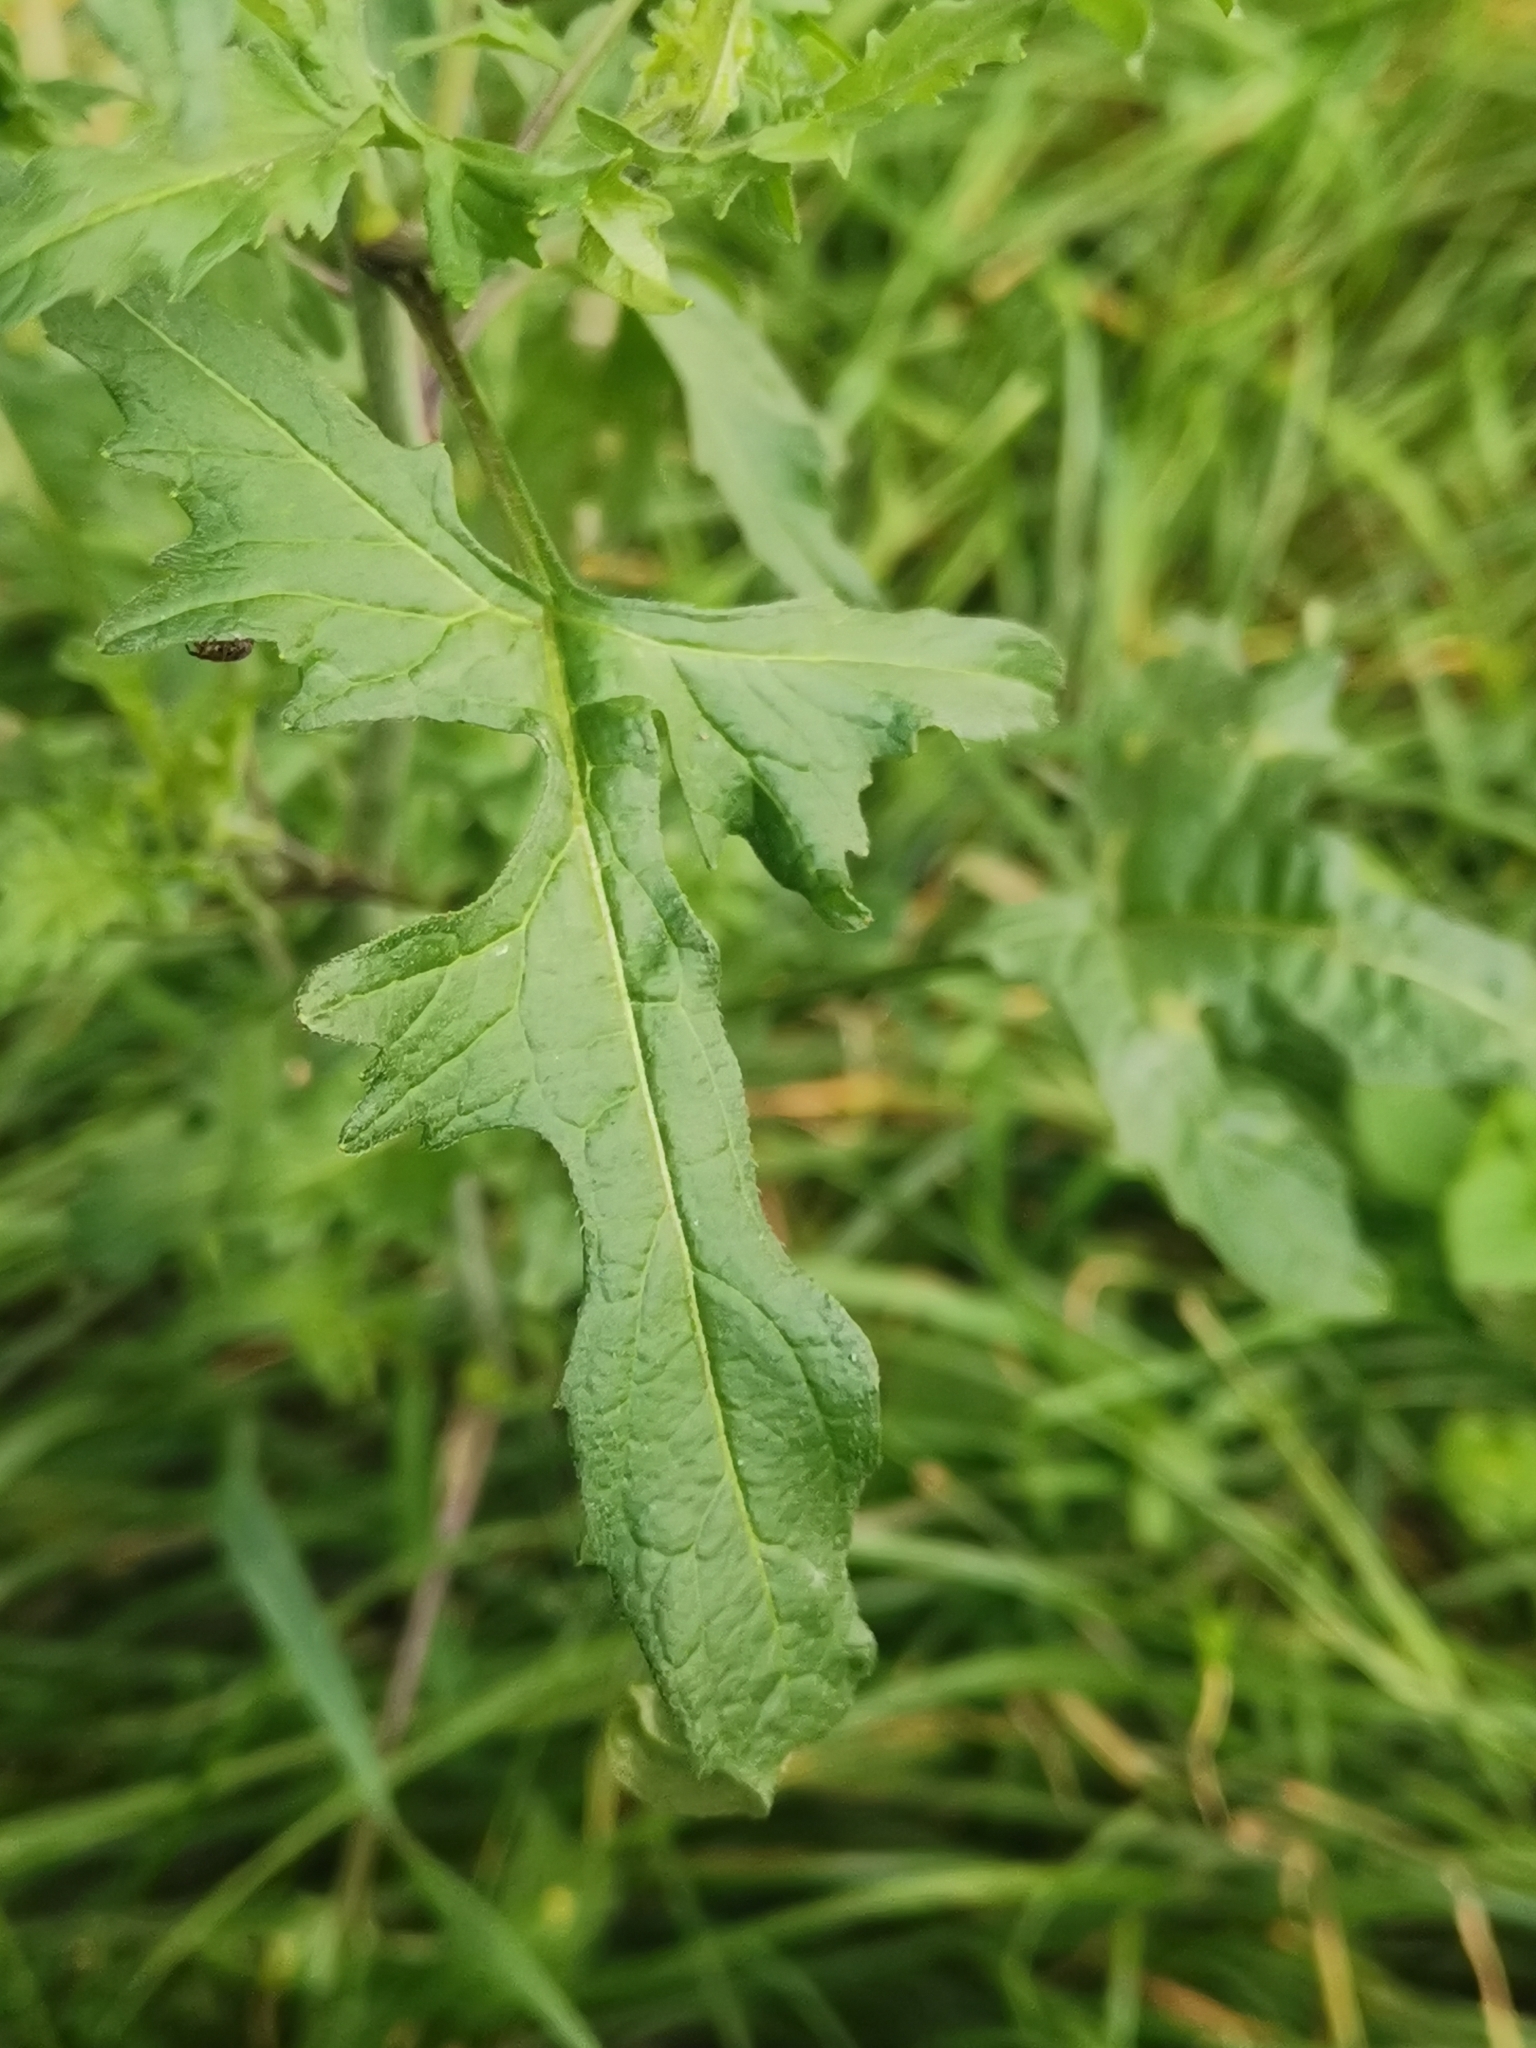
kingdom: Plantae
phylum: Tracheophyta
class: Magnoliopsida
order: Brassicales
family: Brassicaceae
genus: Sisymbrium
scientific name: Sisymbrium officinale
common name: Hedge mustard
